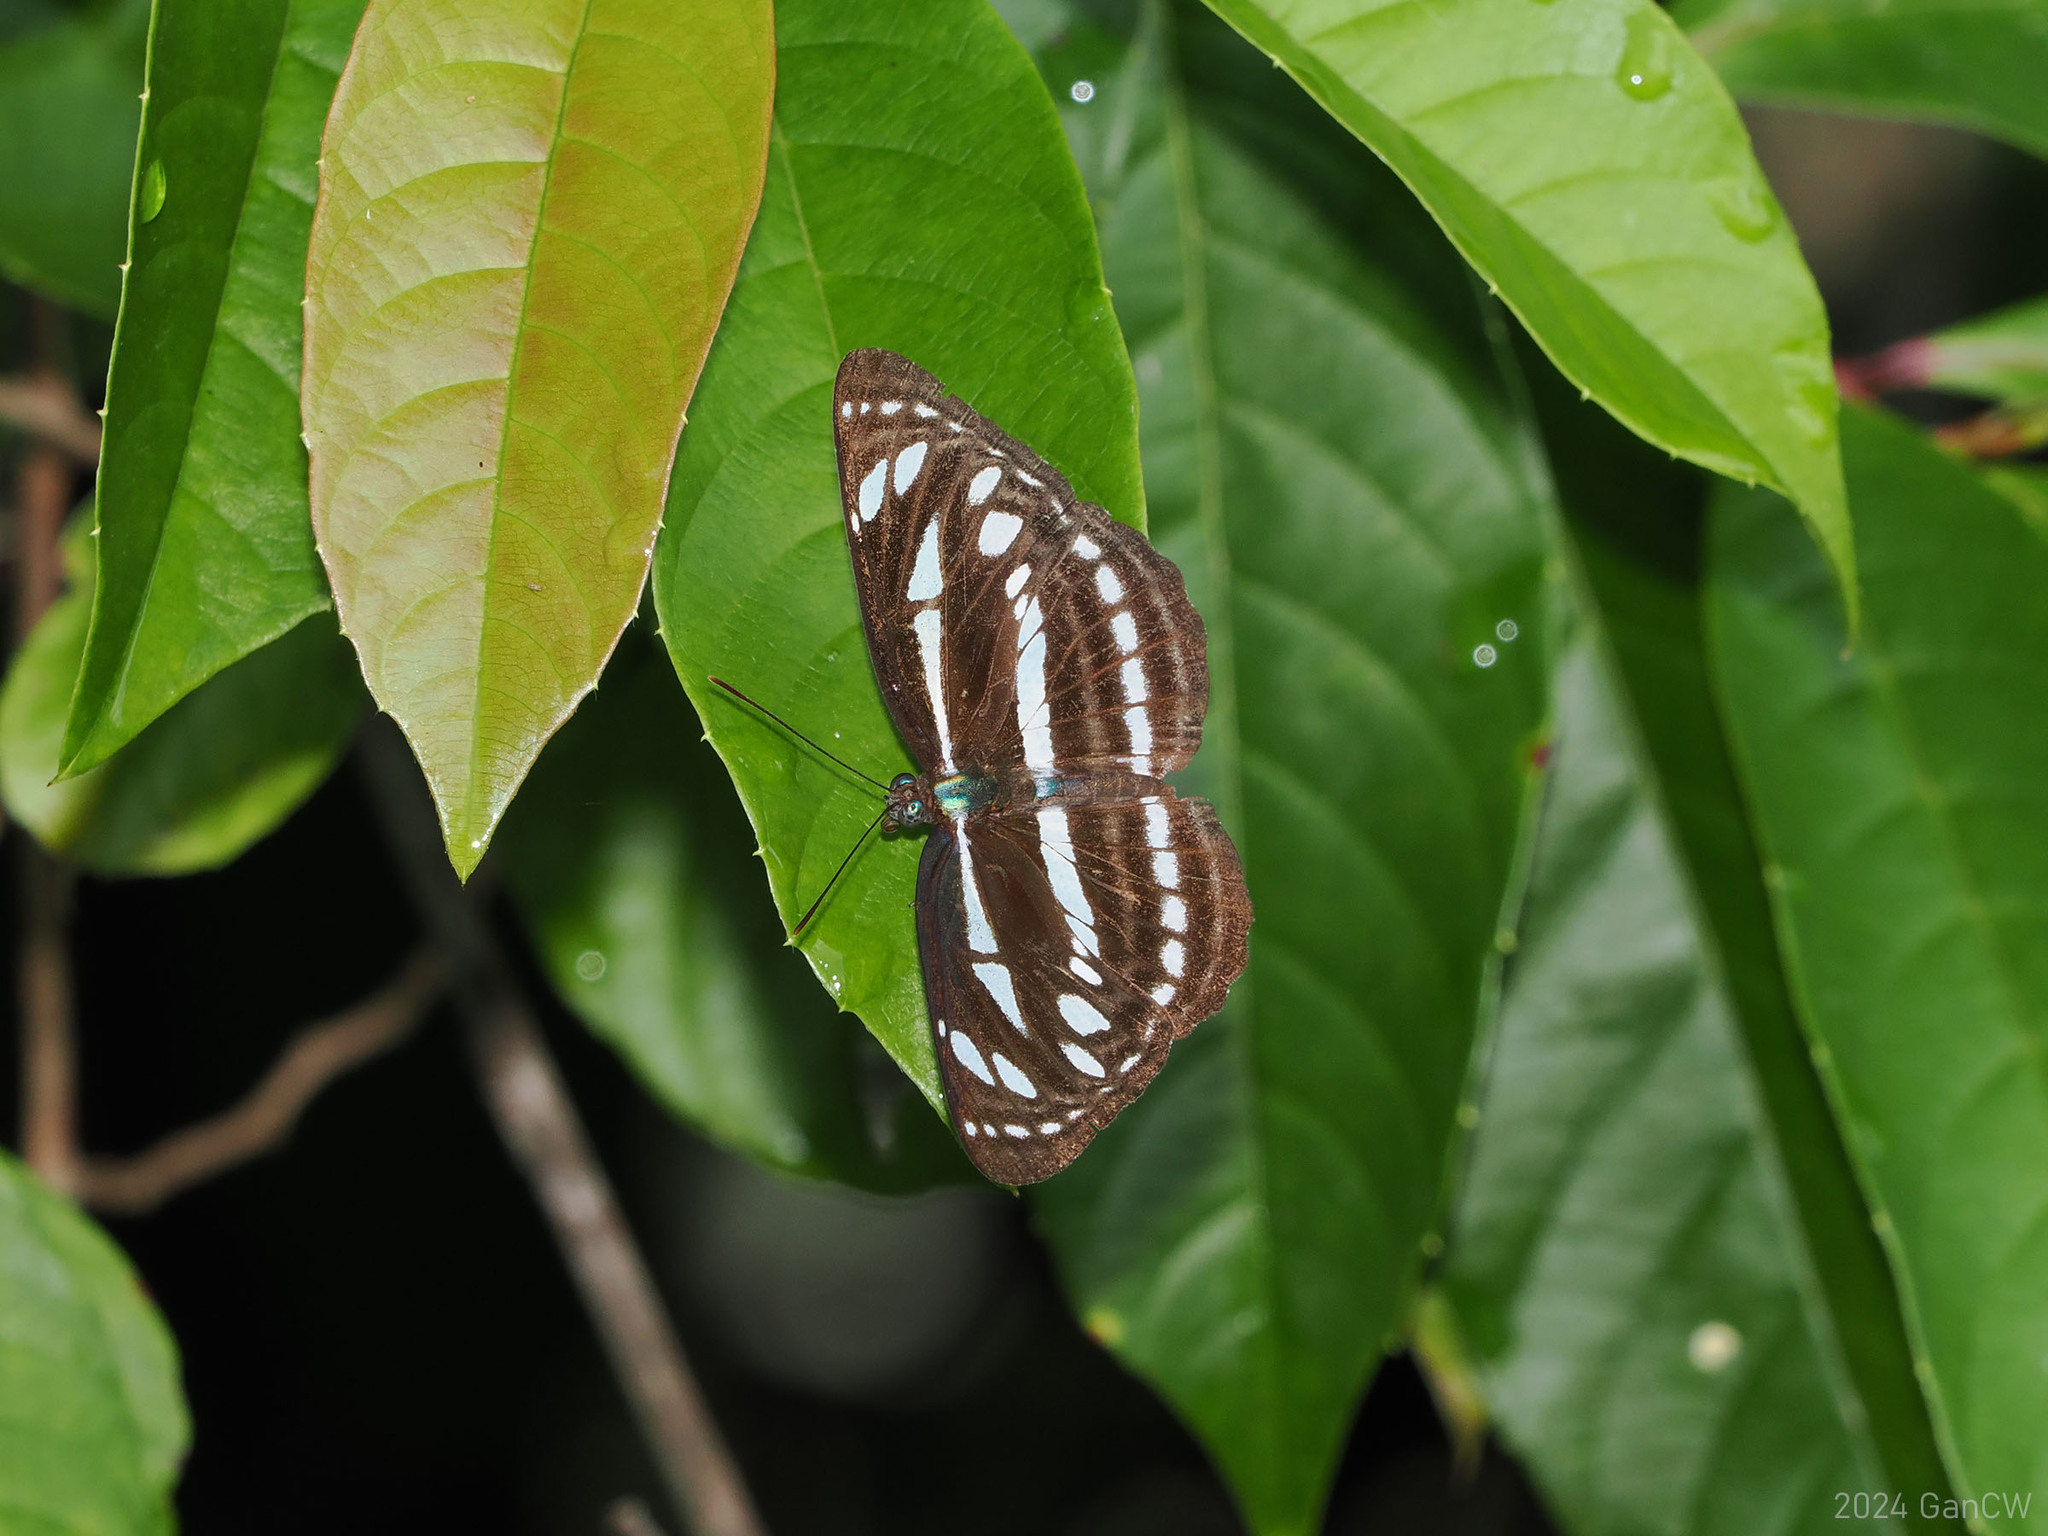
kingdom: Animalia
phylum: Arthropoda
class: Insecta
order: Lepidoptera
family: Nymphalidae
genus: Neptis
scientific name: Neptis leucoporos
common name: Grey sailer
